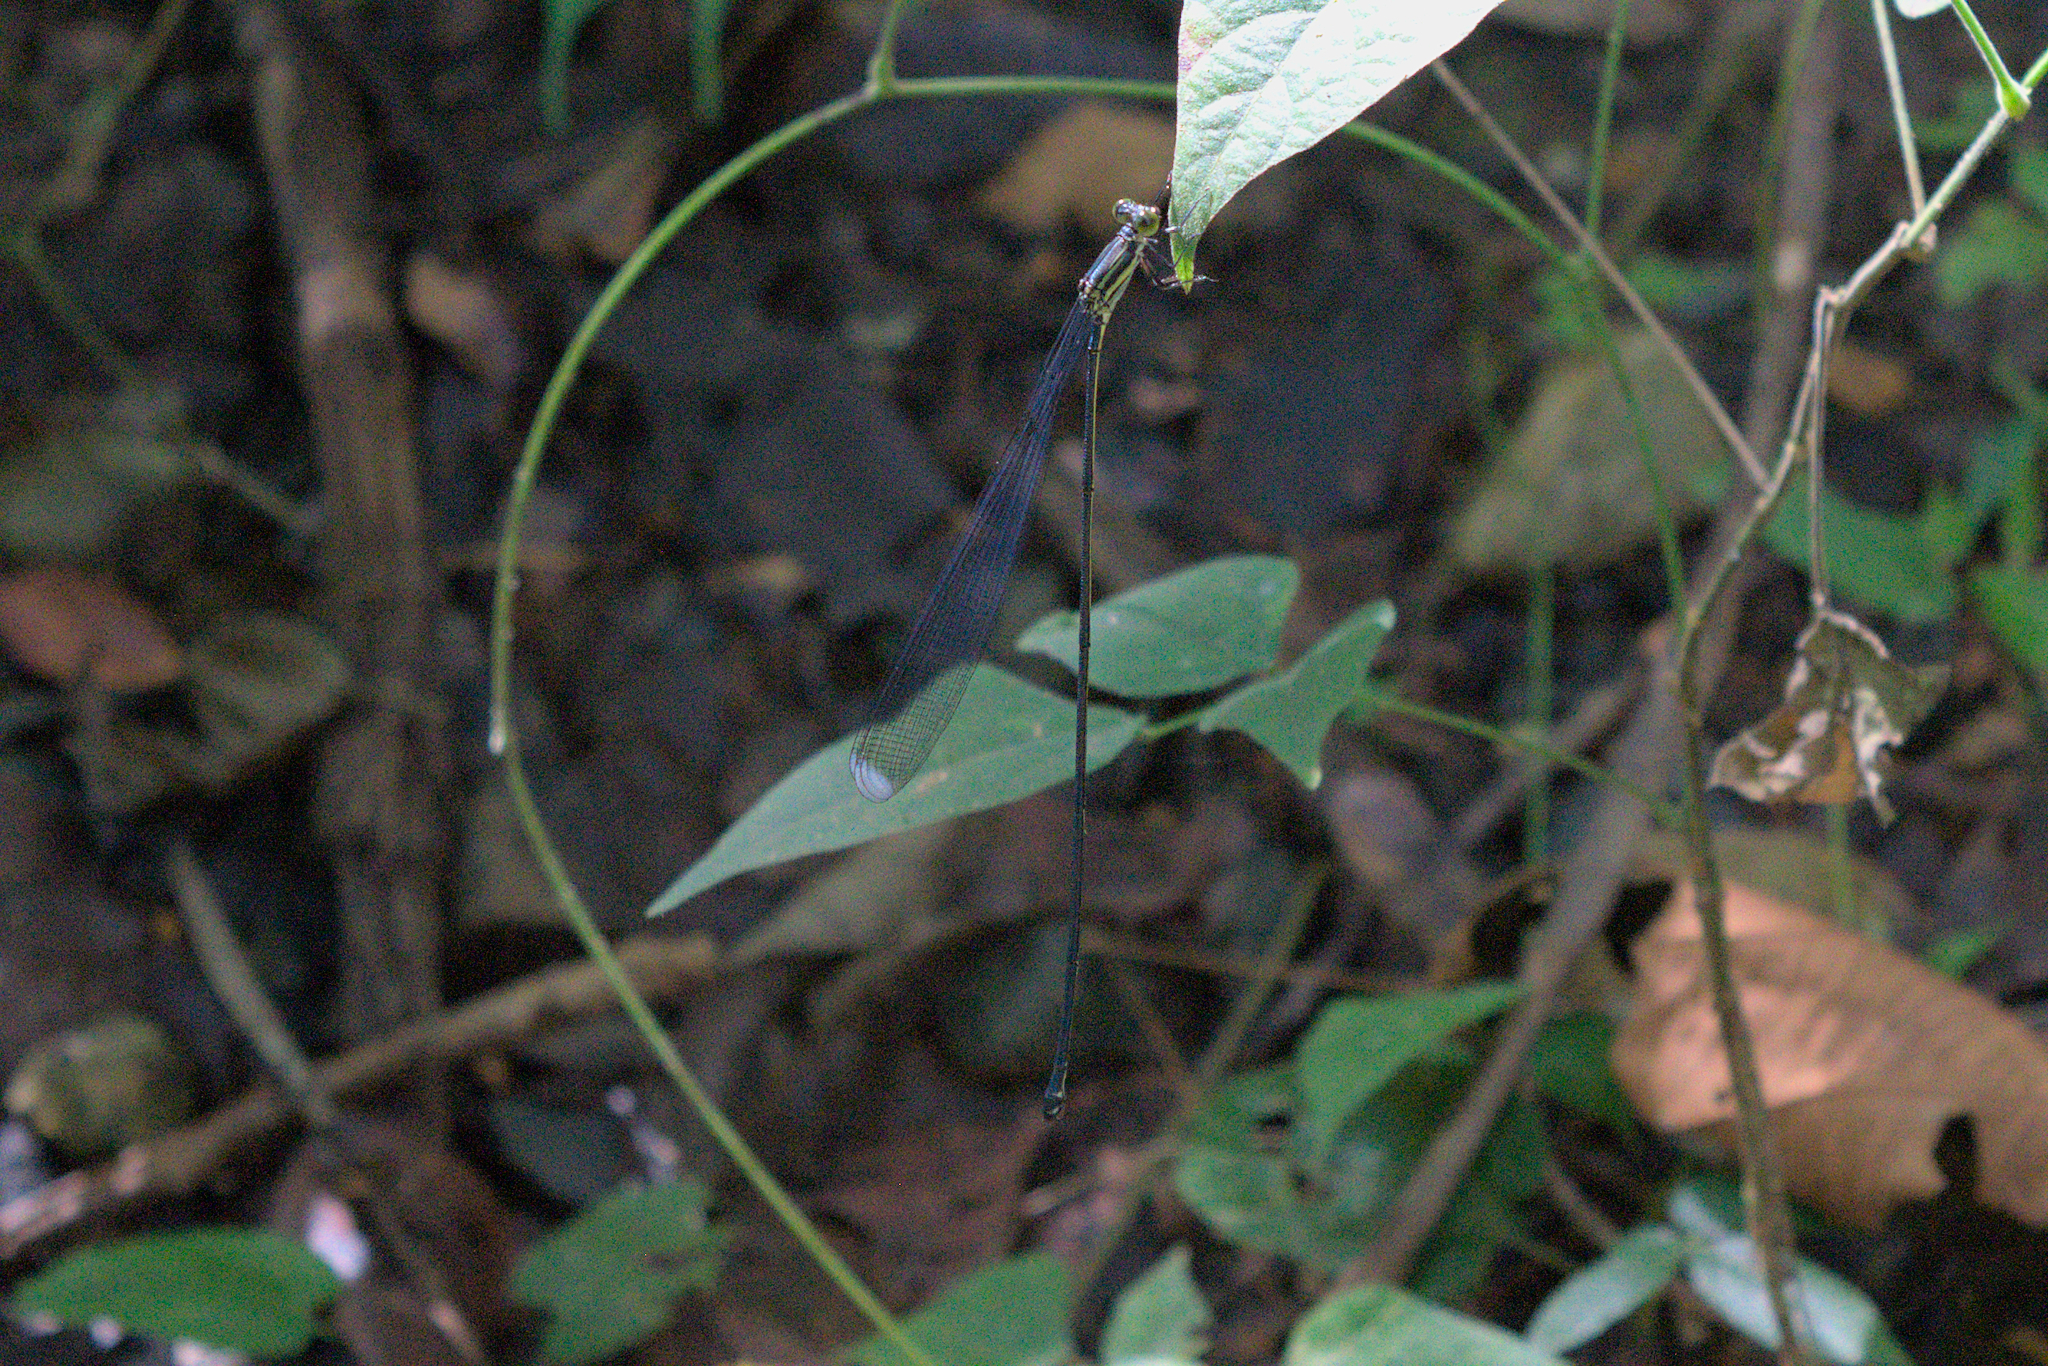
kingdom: Animalia
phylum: Arthropoda
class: Insecta
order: Odonata
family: Coenagrionidae
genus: Mecistogaster
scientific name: Mecistogaster linearis
